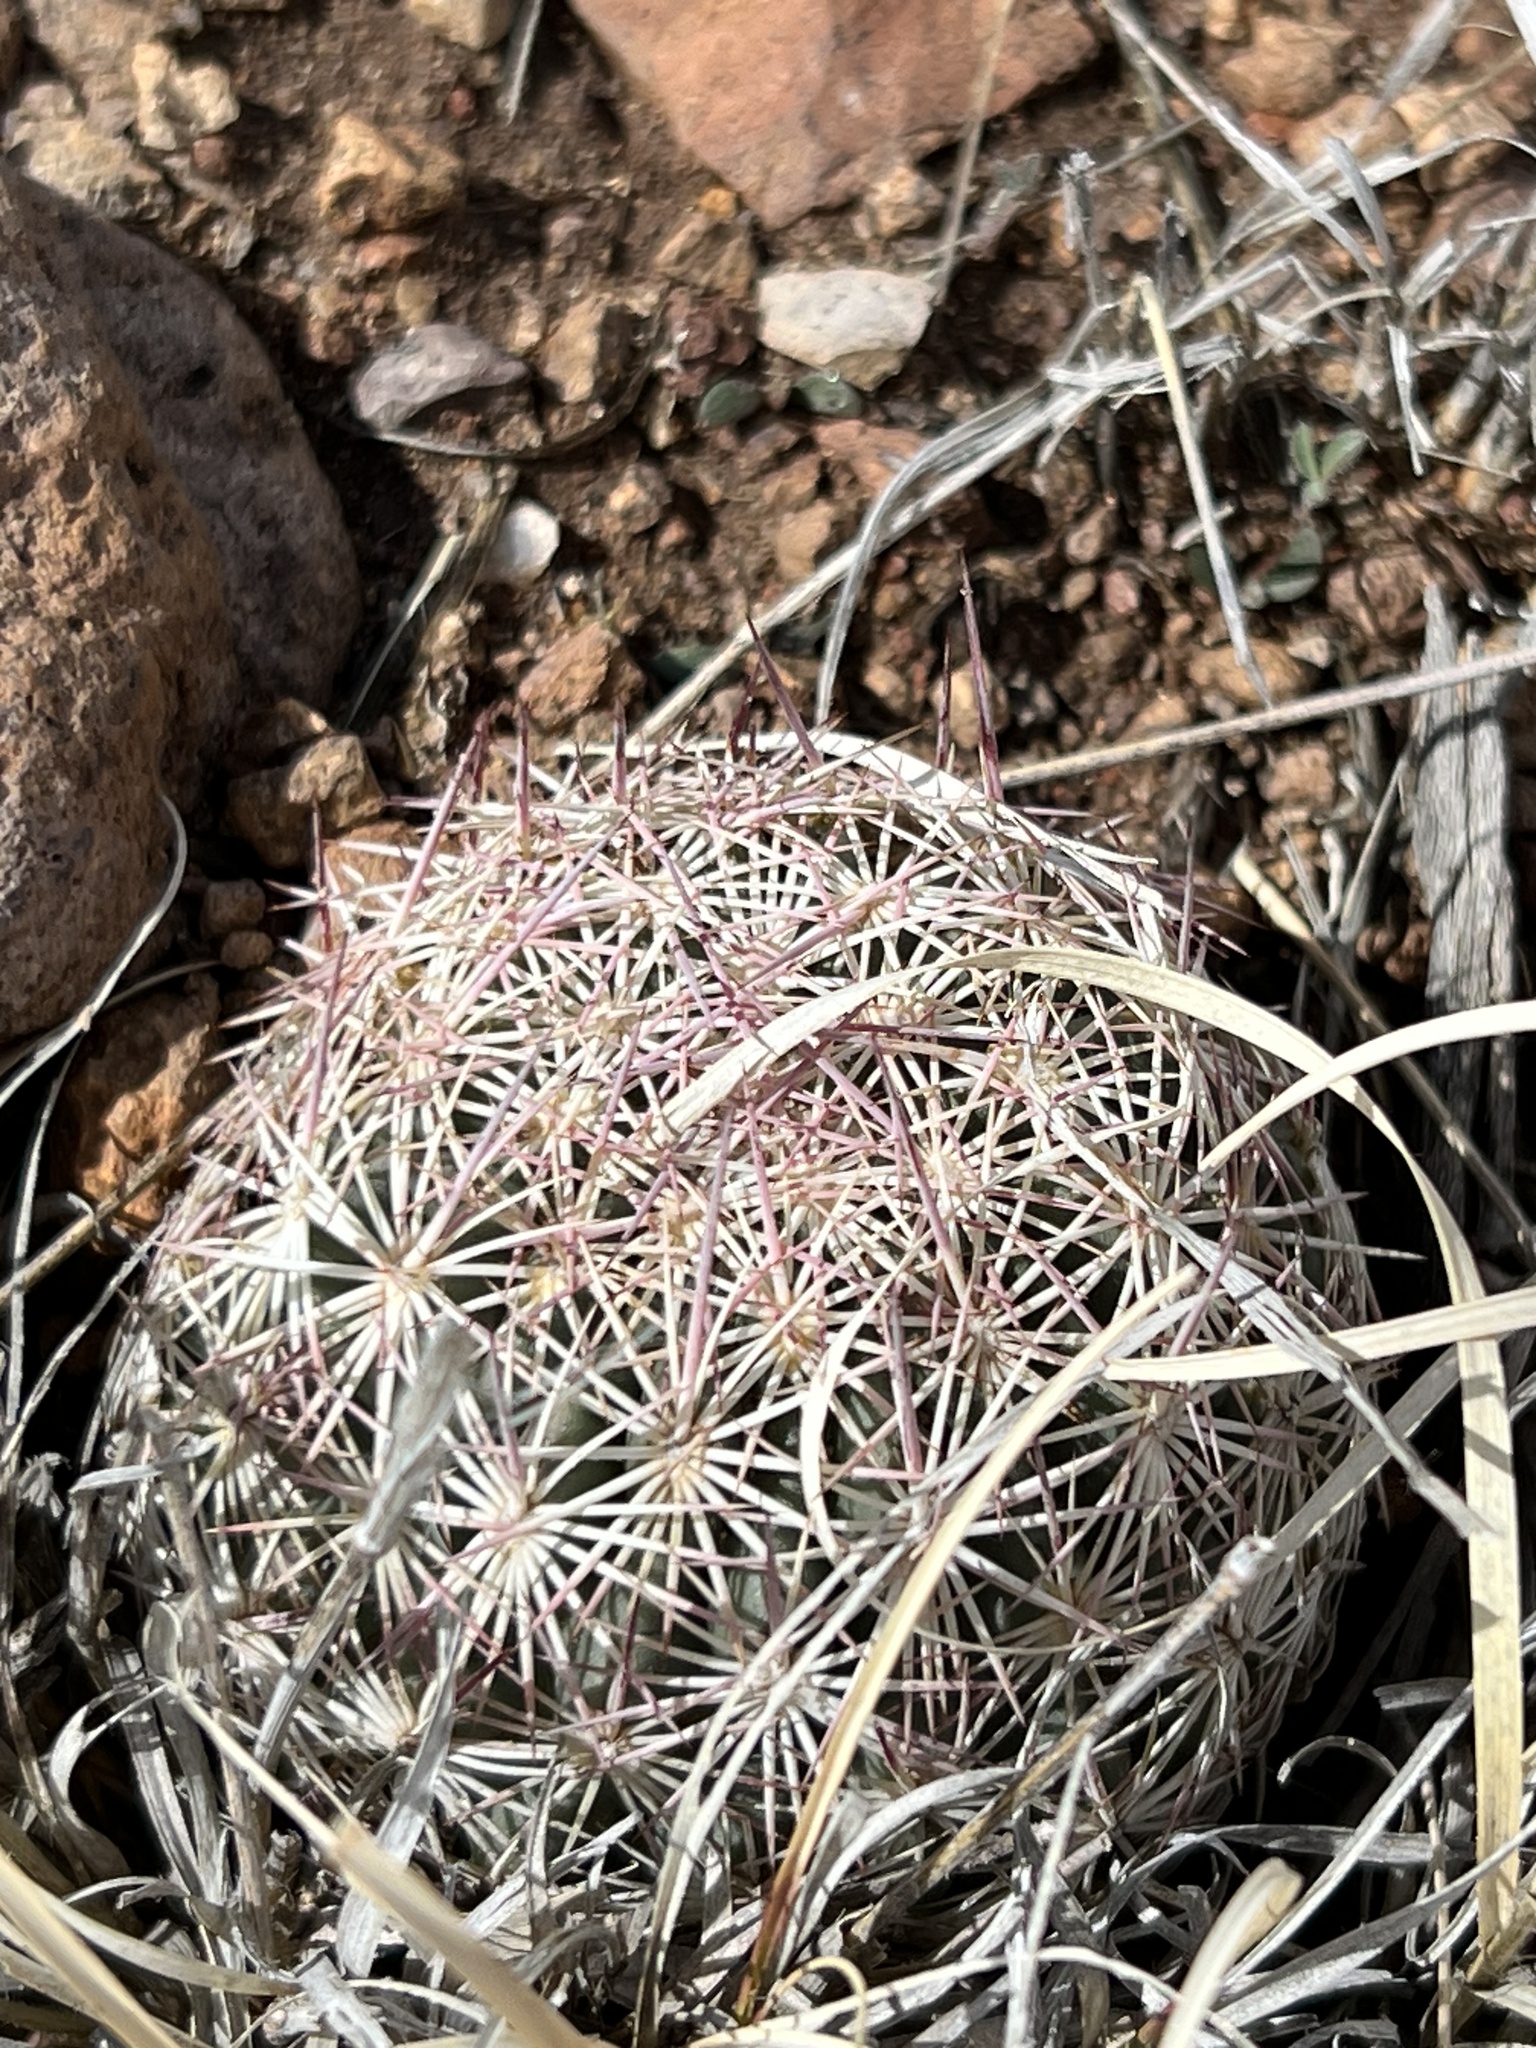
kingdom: Plantae
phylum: Tracheophyta
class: Magnoliopsida
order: Caryophyllales
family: Cactaceae
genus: Sclerocactus
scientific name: Sclerocactus johnsonii
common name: Eight-spine fishhook cactus
